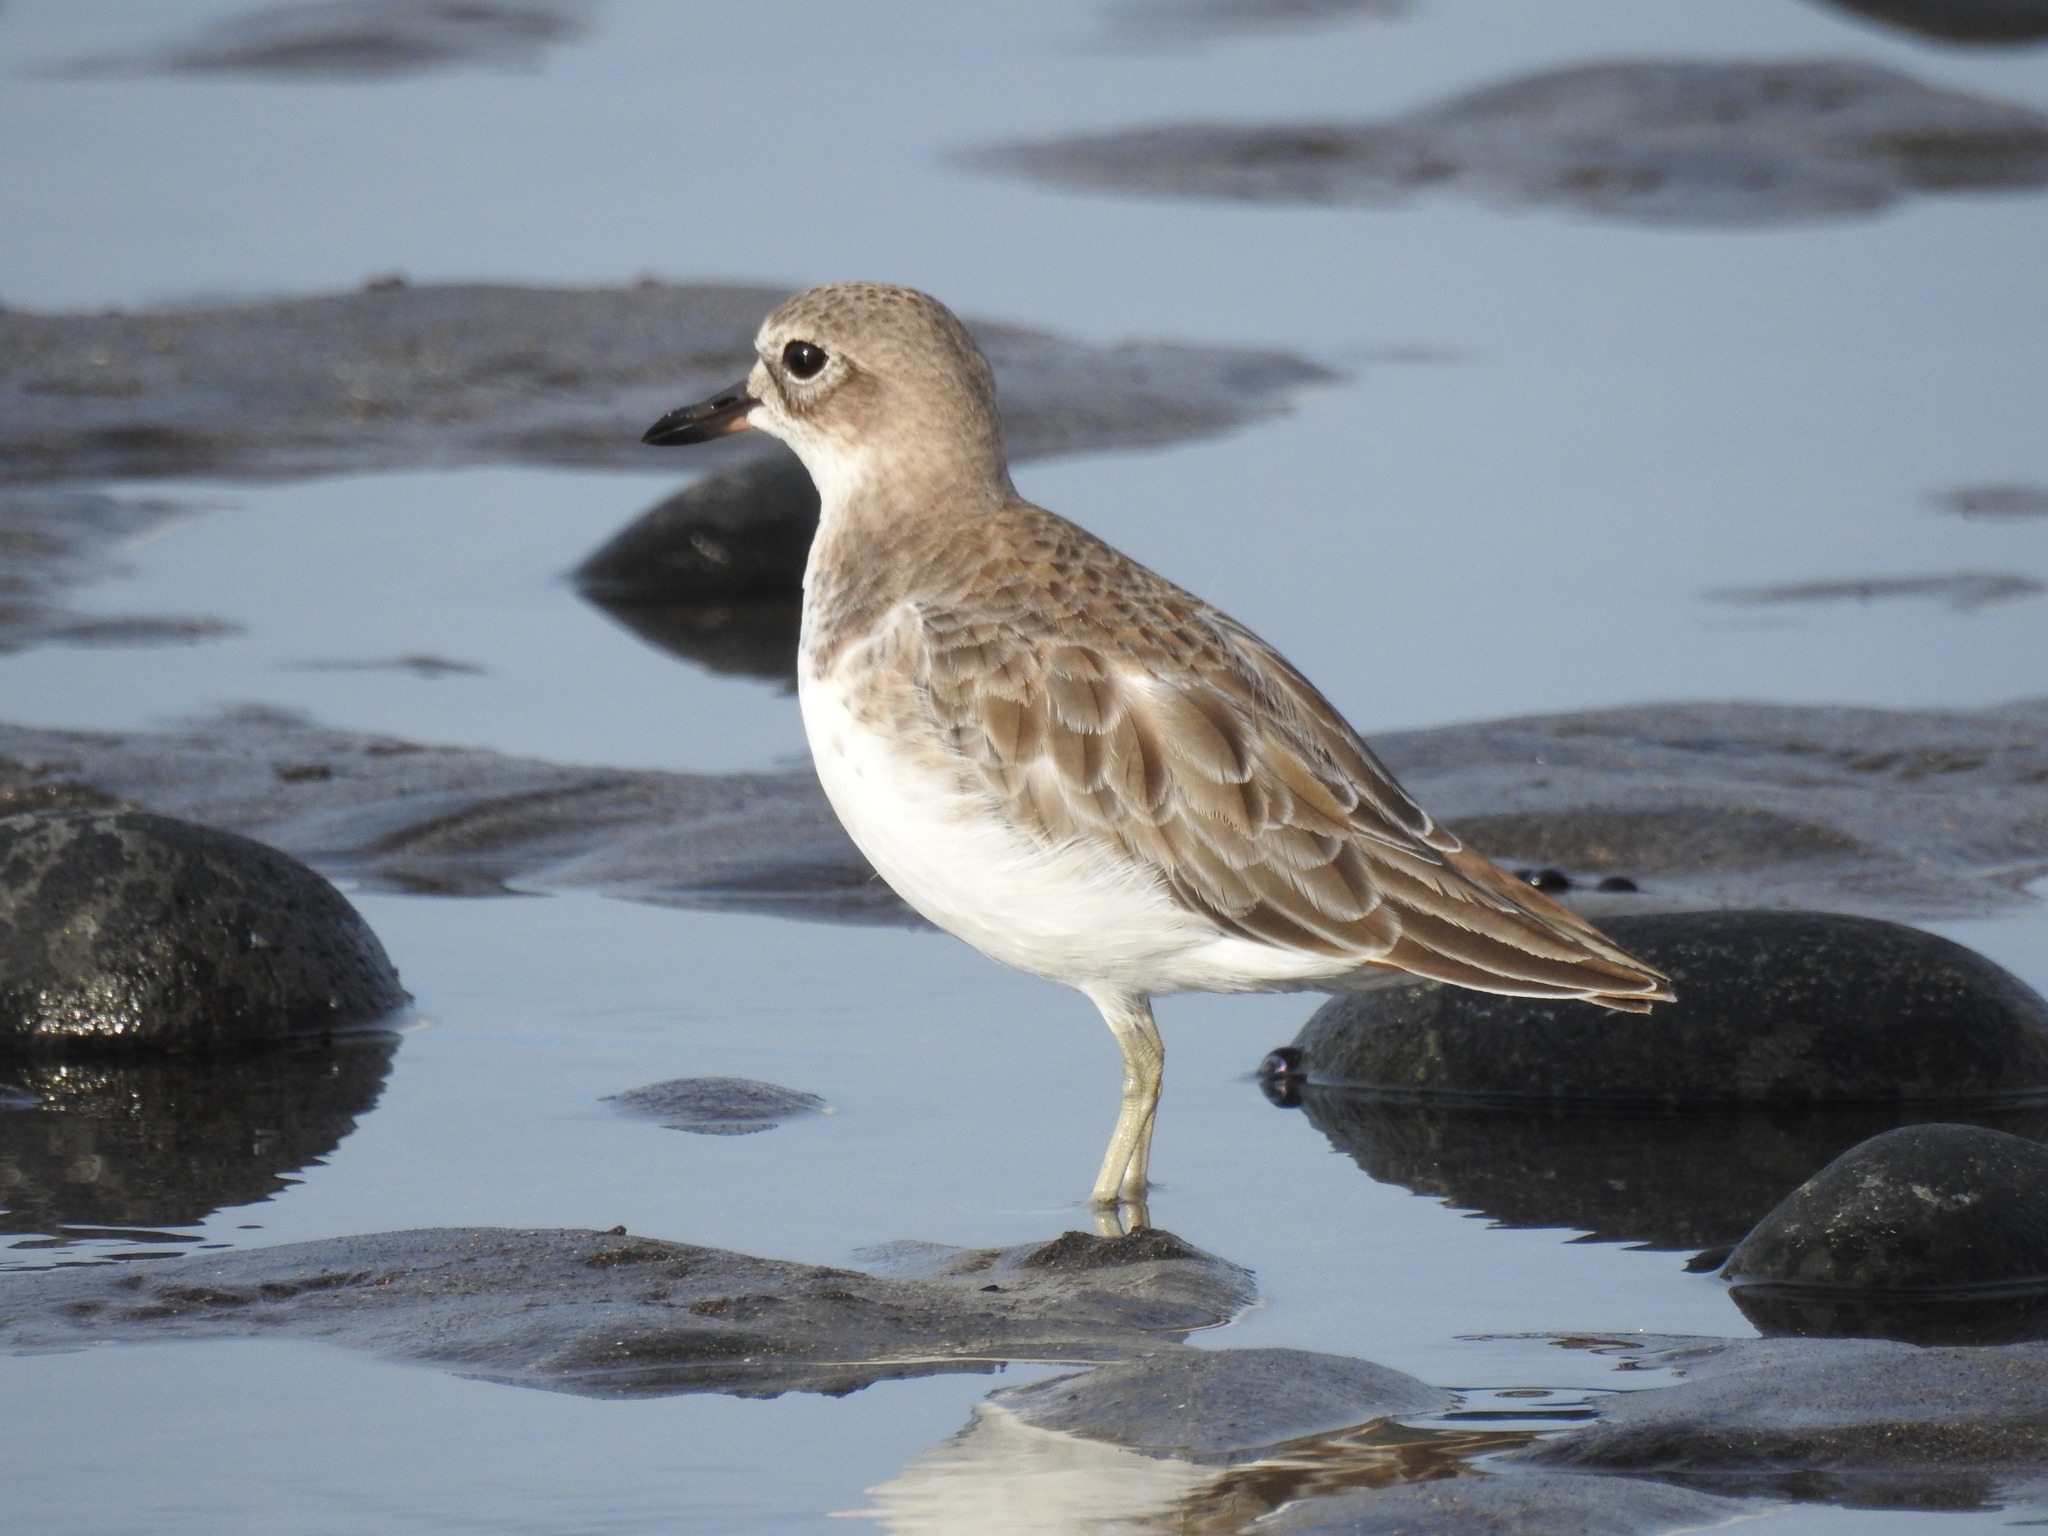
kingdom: Animalia
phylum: Chordata
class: Aves
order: Charadriiformes
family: Charadriidae
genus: Anarhynchus
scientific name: Anarhynchus
